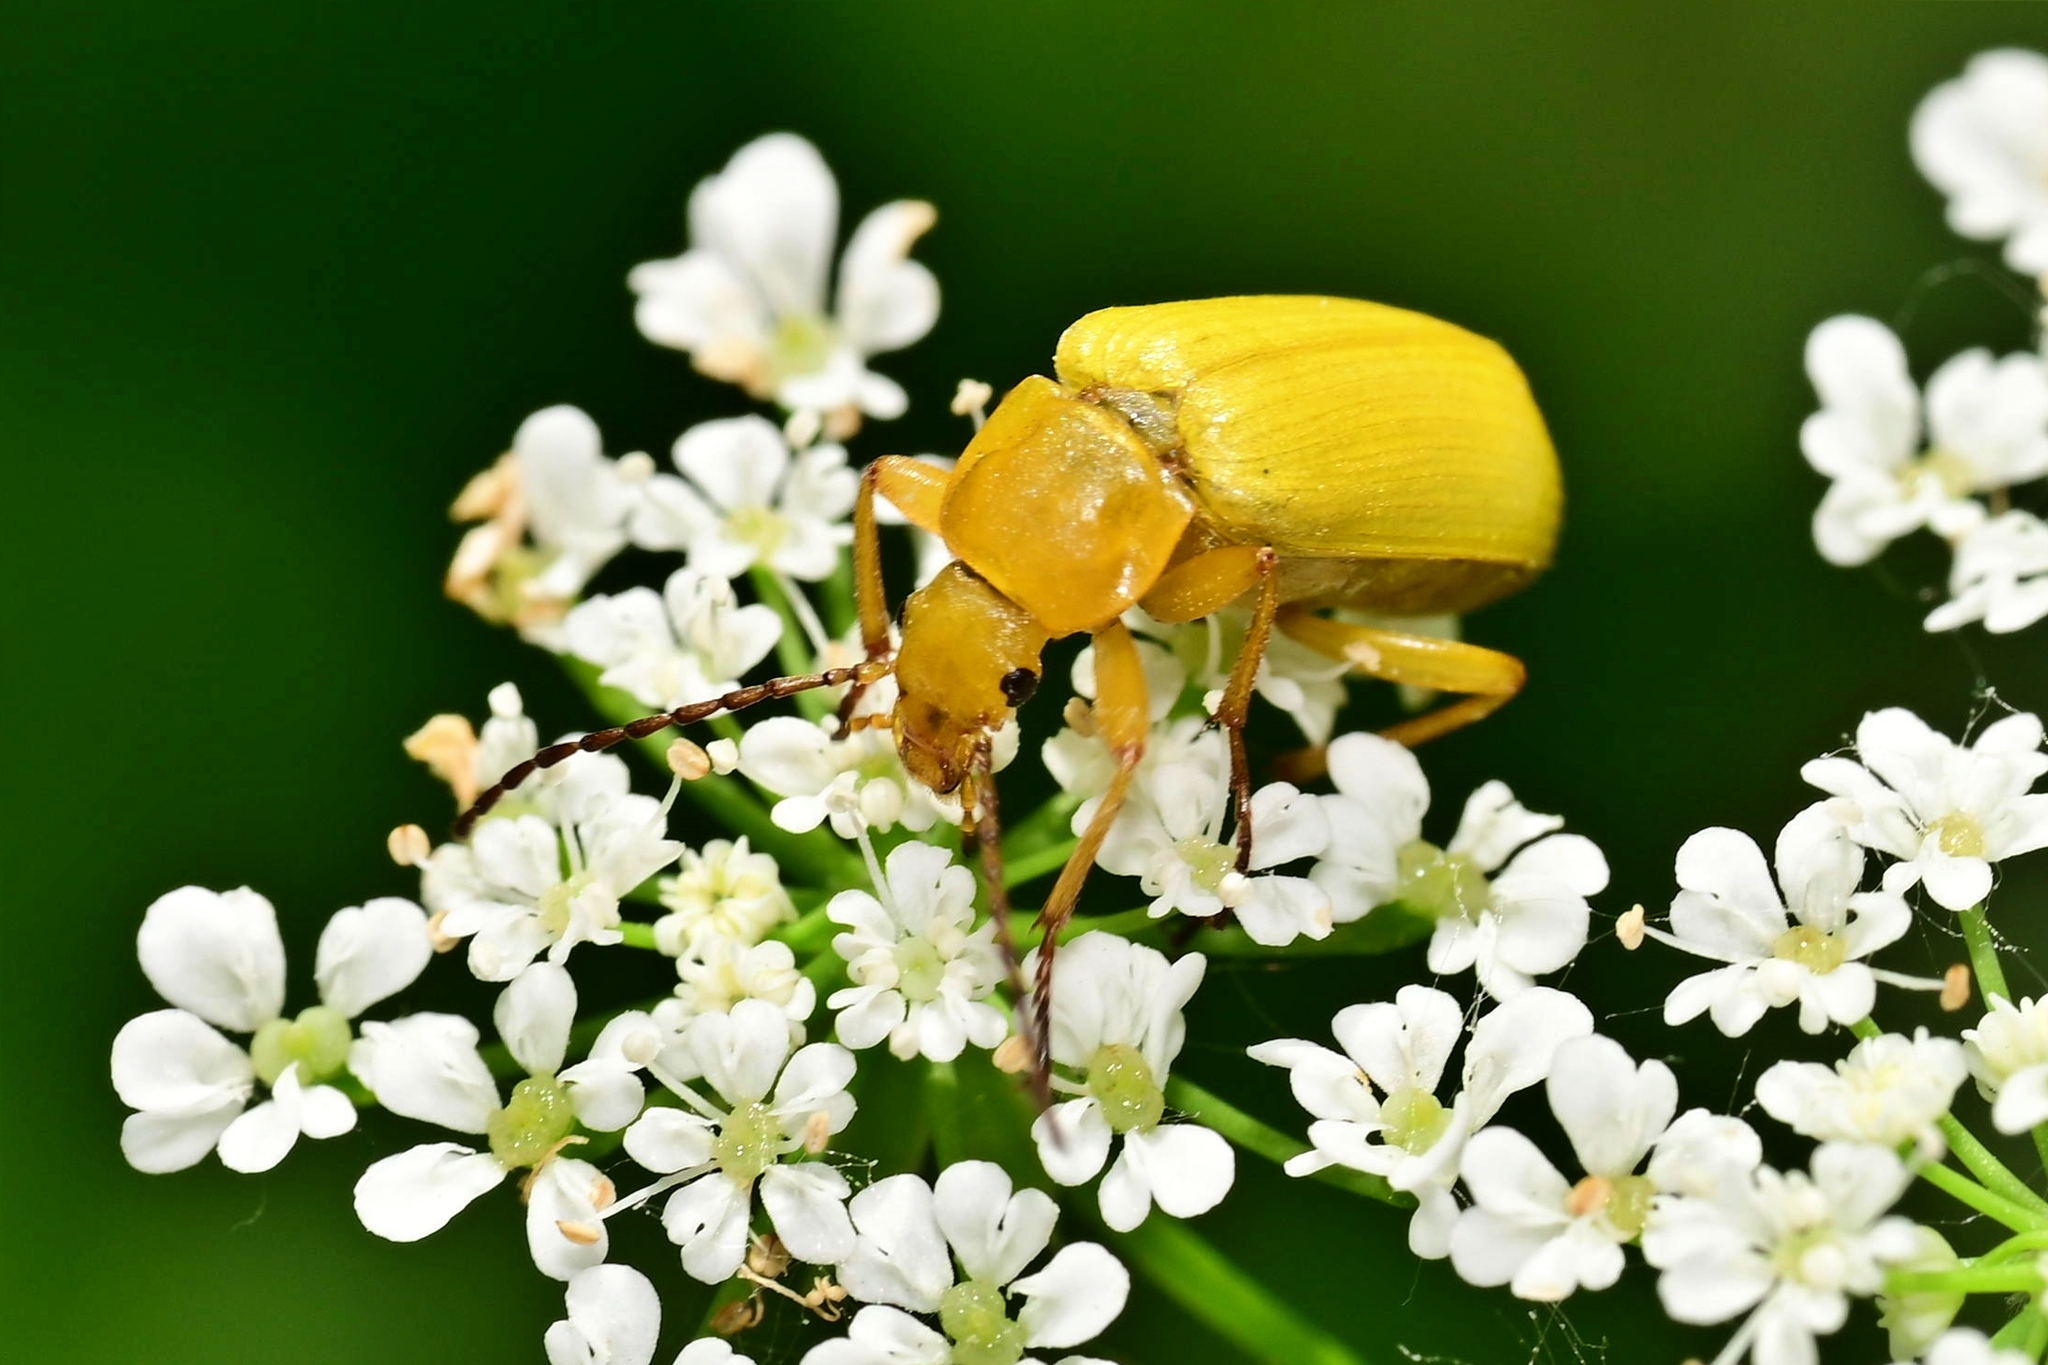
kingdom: Animalia
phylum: Arthropoda
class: Insecta
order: Coleoptera
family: Tenebrionidae
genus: Cteniopus
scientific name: Cteniopus sulphureus
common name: Sulphur beetle
